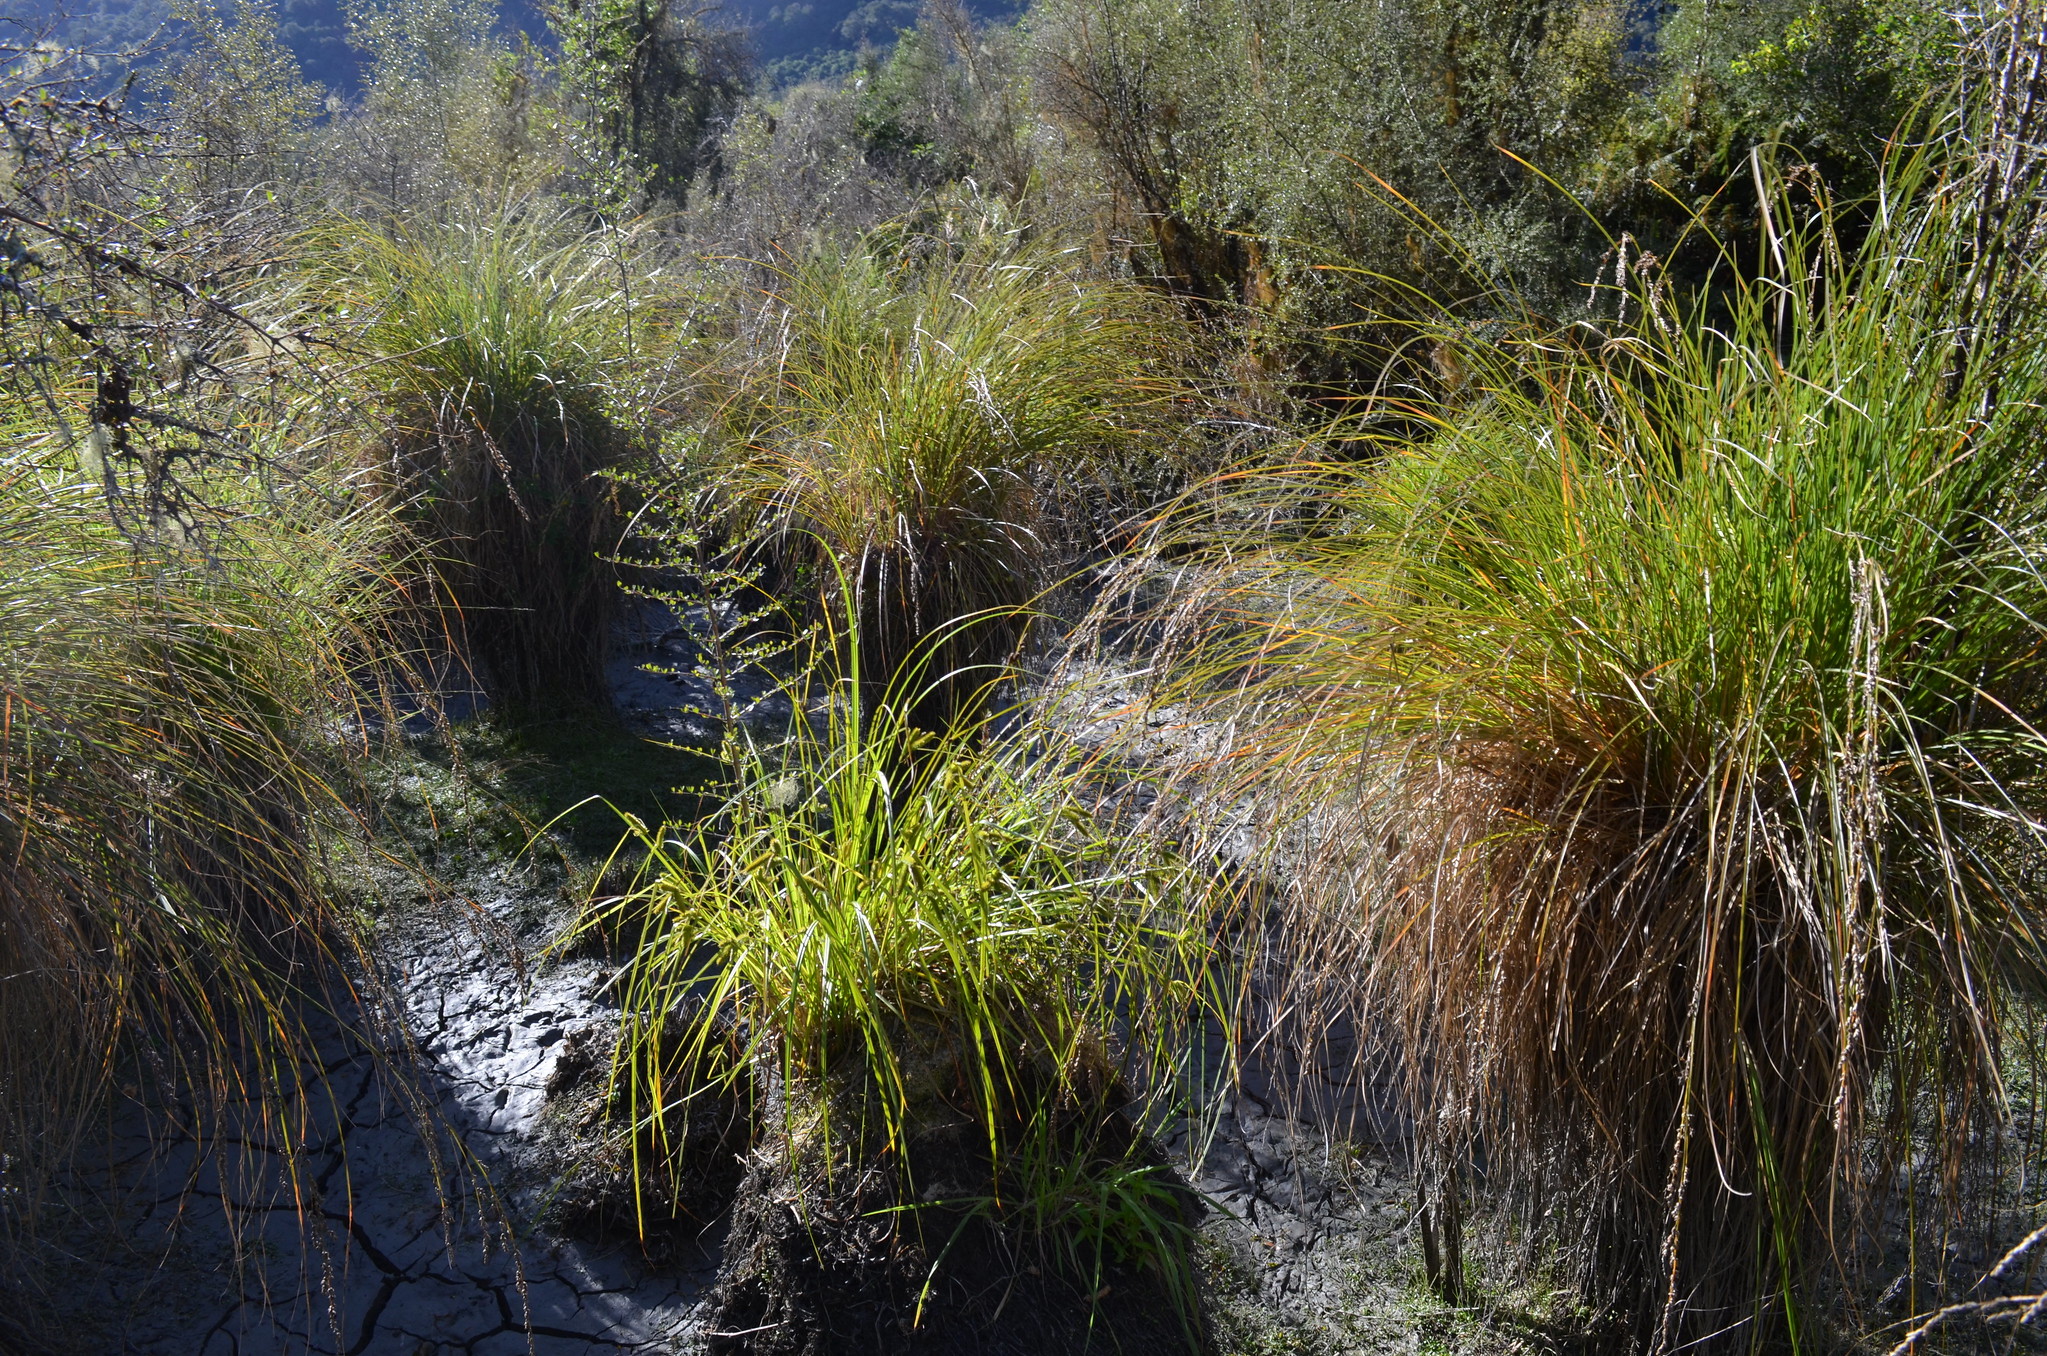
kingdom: Plantae
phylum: Tracheophyta
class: Liliopsida
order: Poales
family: Cyperaceae
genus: Carex
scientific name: Carex secta
